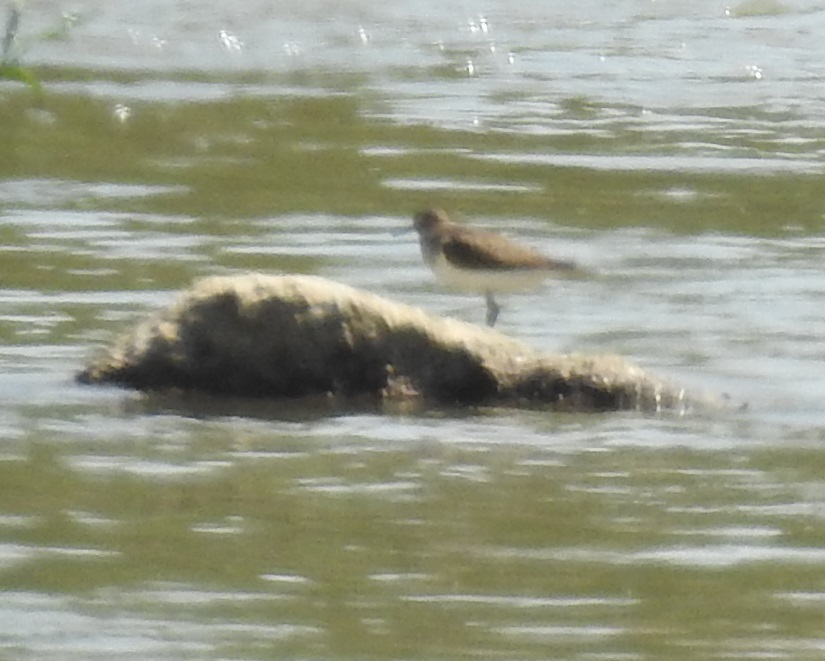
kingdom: Animalia
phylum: Chordata
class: Aves
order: Charadriiformes
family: Scolopacidae
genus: Actitis
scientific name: Actitis hypoleucos
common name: Common sandpiper
